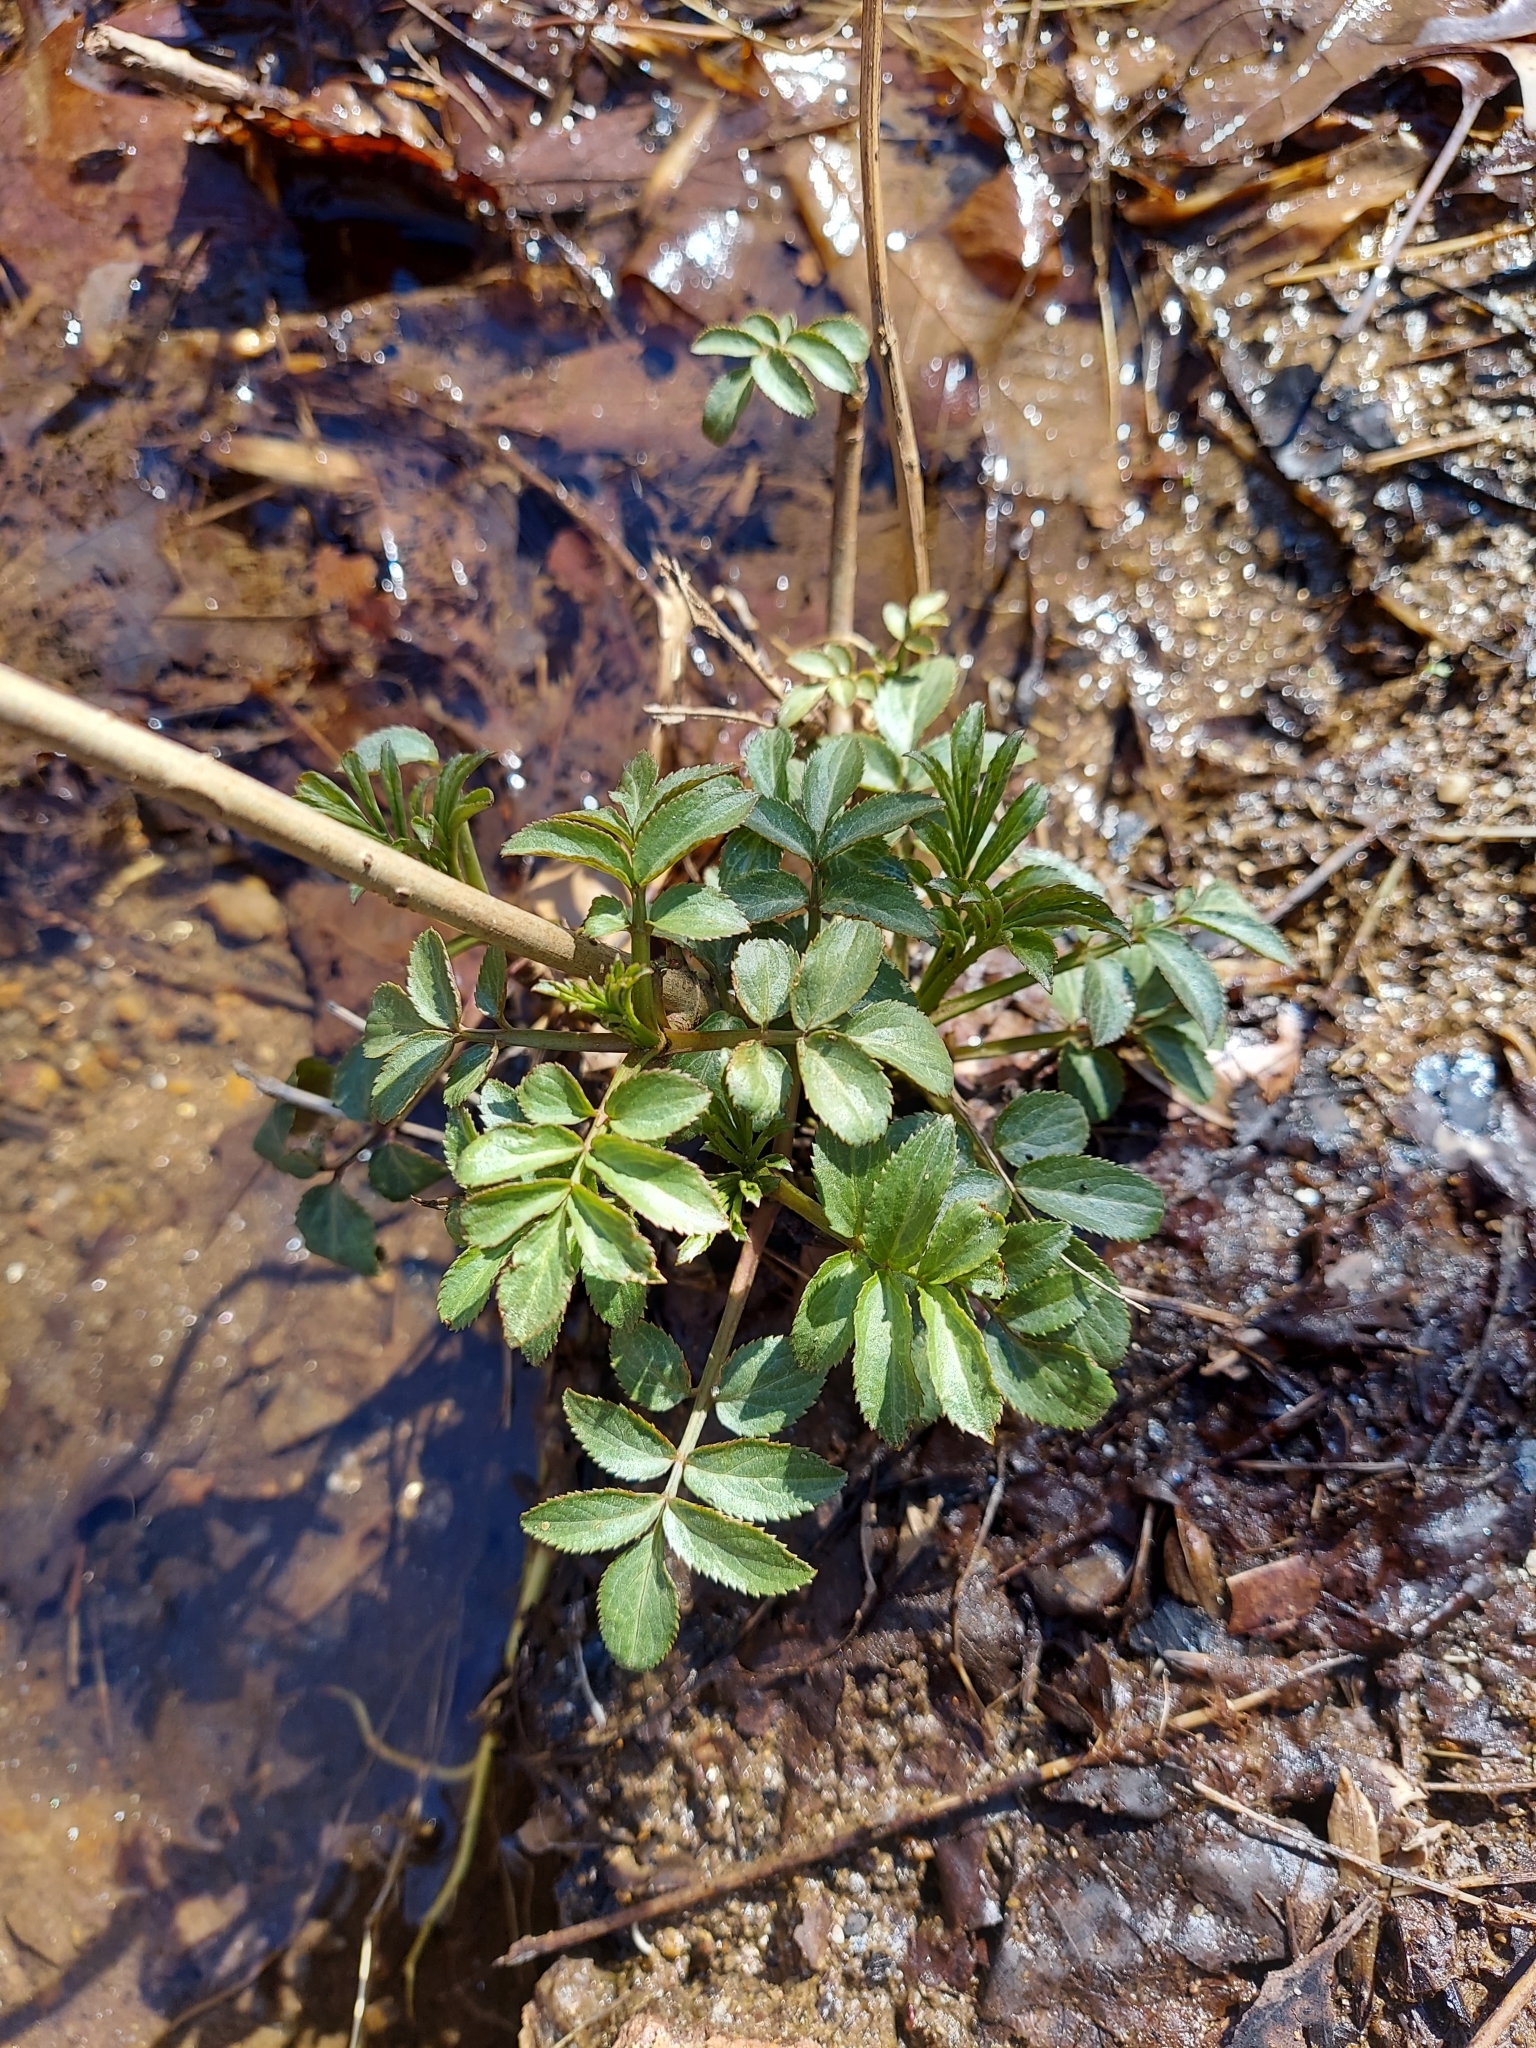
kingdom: Plantae
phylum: Tracheophyta
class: Magnoliopsida
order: Dipsacales
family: Viburnaceae
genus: Sambucus
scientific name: Sambucus canadensis
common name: American elder
